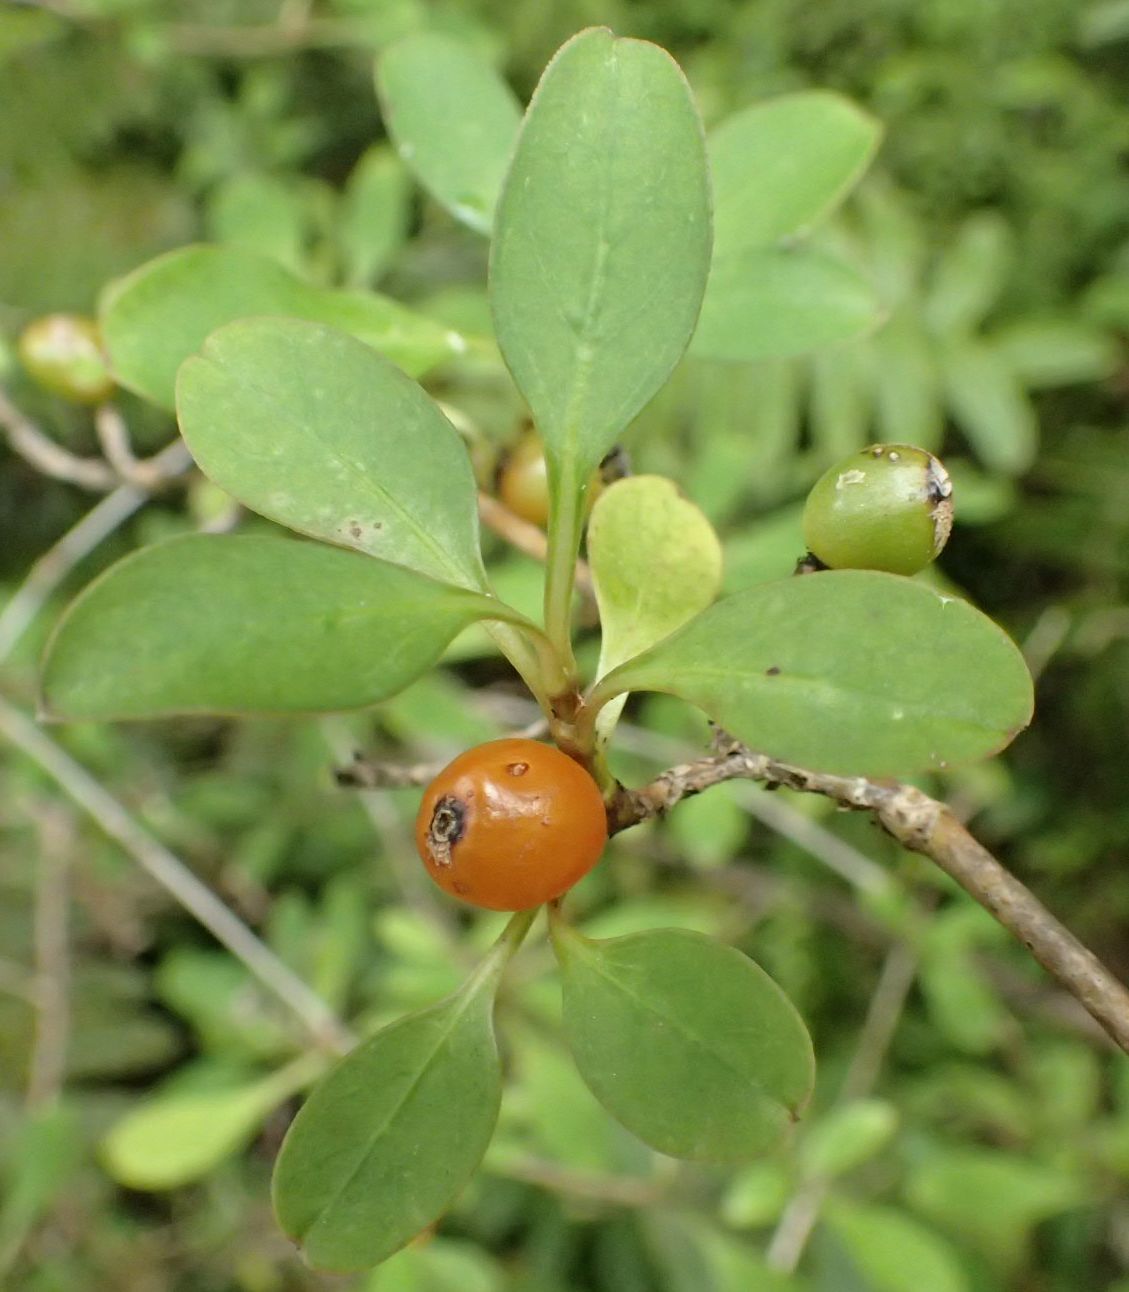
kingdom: Plantae
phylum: Tracheophyta
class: Magnoliopsida
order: Gentianales
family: Rubiaceae
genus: Coprosma
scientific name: Coprosma foetidissima
